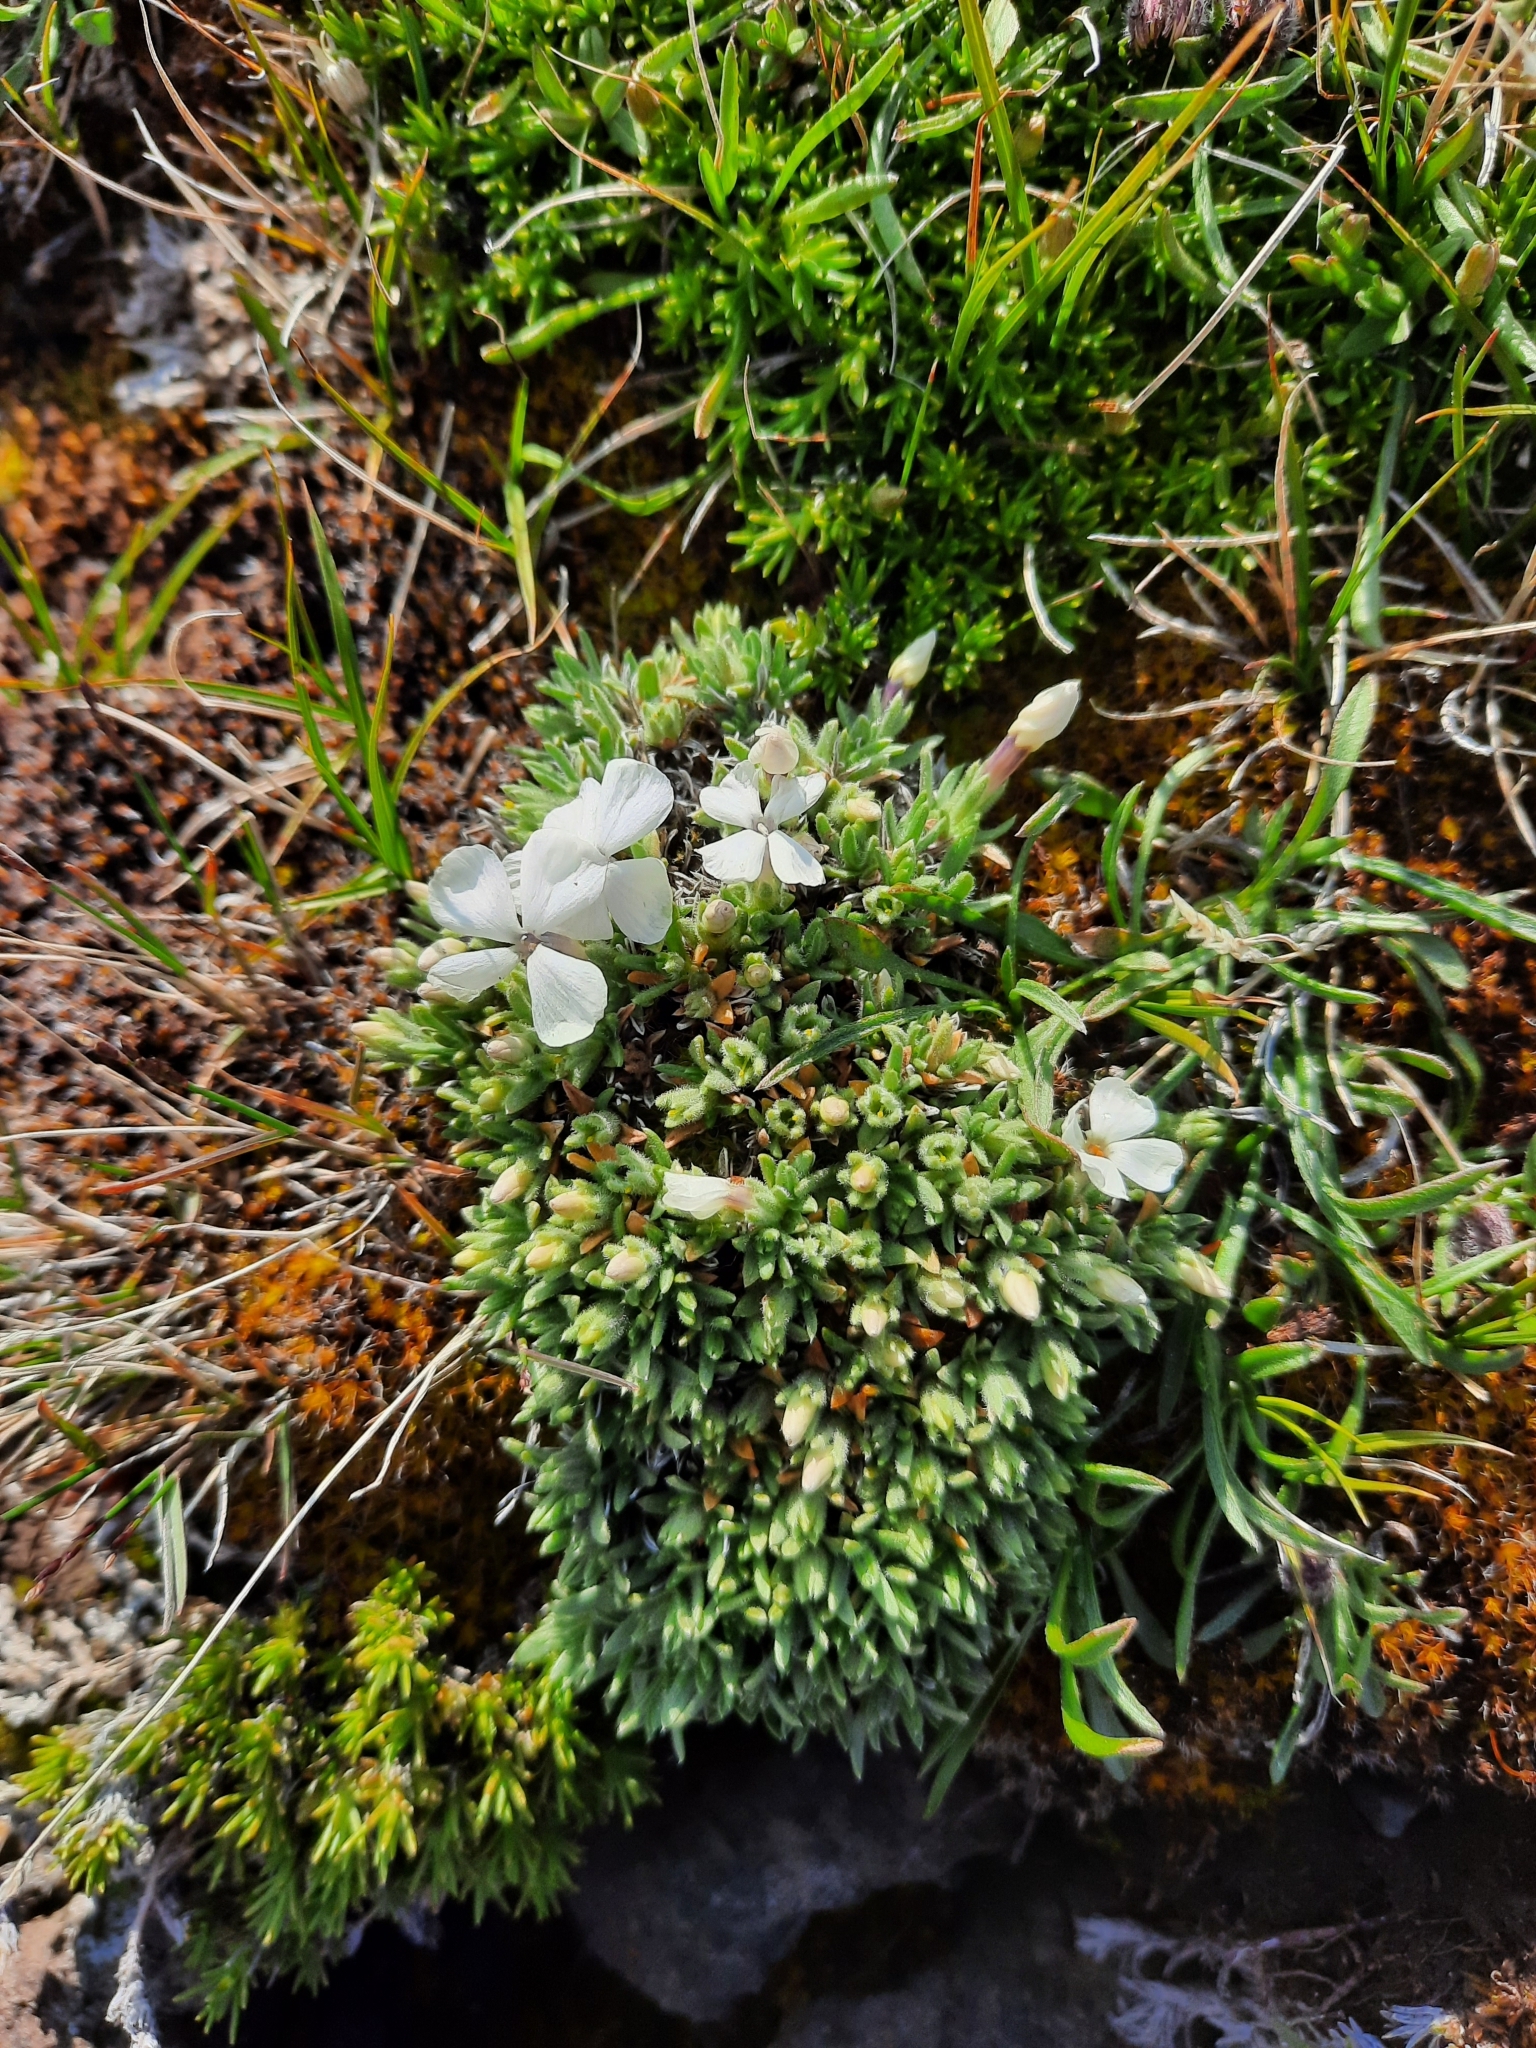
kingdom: Plantae
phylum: Tracheophyta
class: Magnoliopsida
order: Ericales
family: Polemoniaceae
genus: Phlox
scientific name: Phlox pulvinata
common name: Cushion phlox
